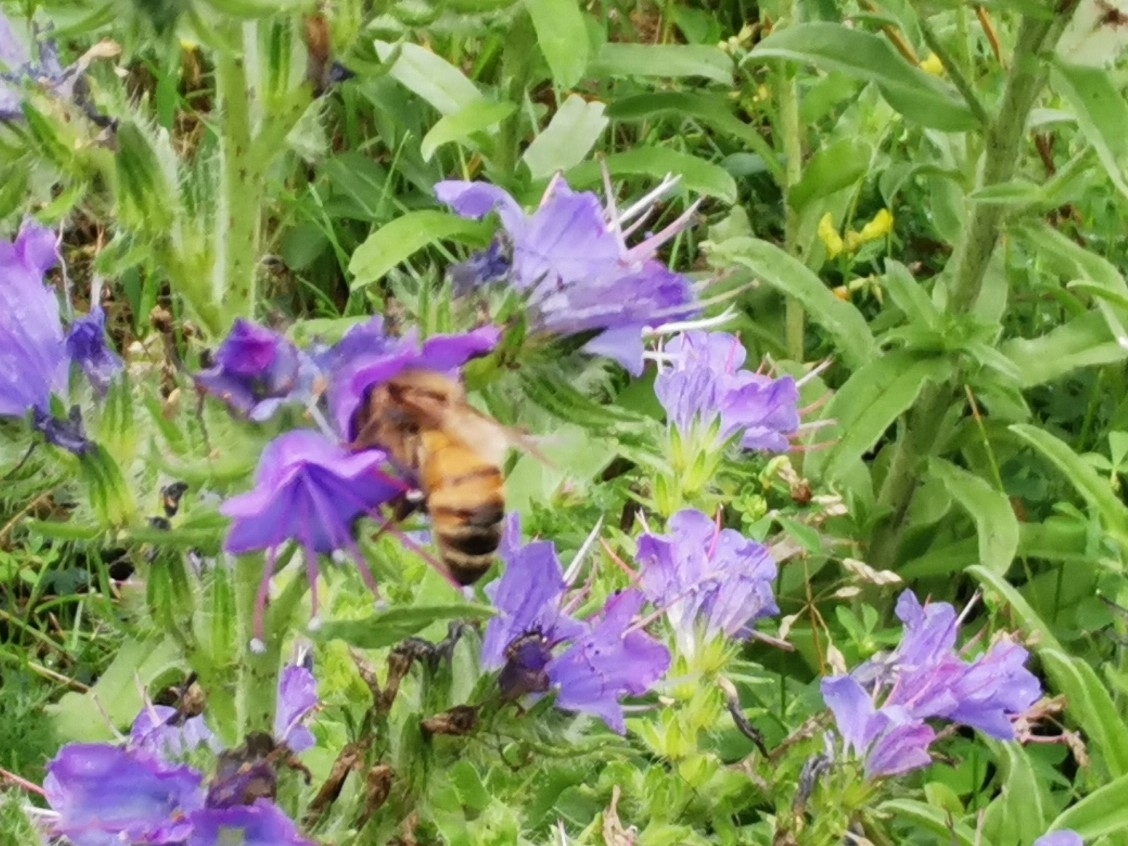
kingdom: Animalia
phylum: Arthropoda
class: Insecta
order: Hymenoptera
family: Apidae
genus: Apis
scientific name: Apis mellifera
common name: Honey bee
